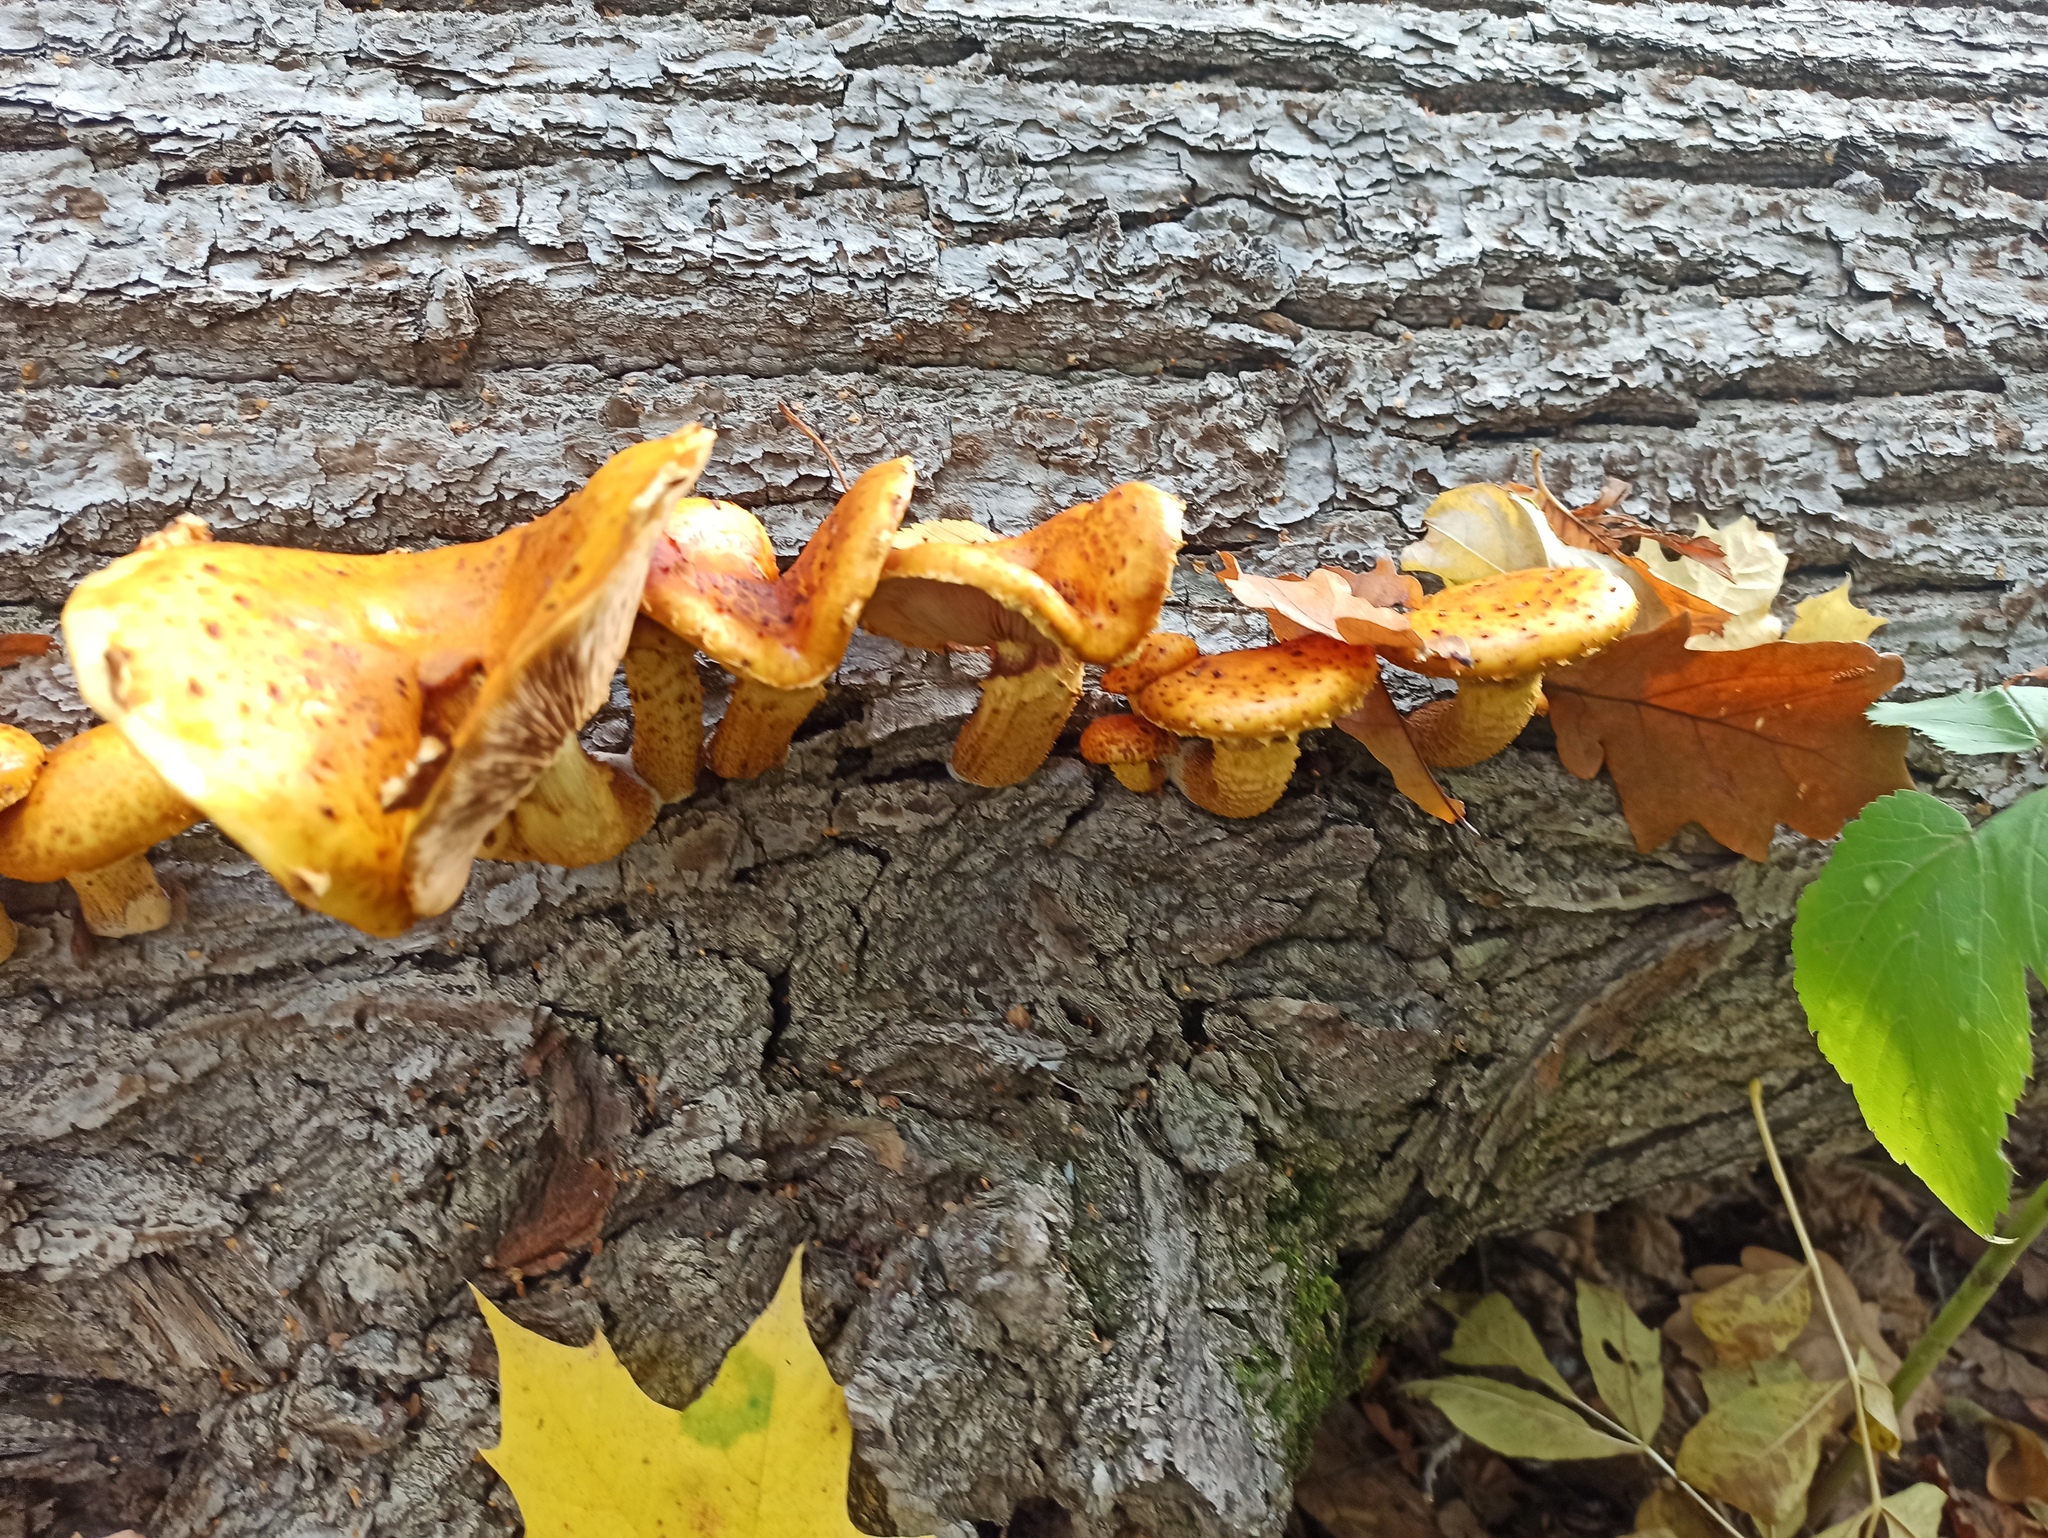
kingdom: Fungi
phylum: Basidiomycota
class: Agaricomycetes
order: Agaricales
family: Strophariaceae
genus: Pholiota
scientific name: Pholiota aurivella
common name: Golden scalycap
